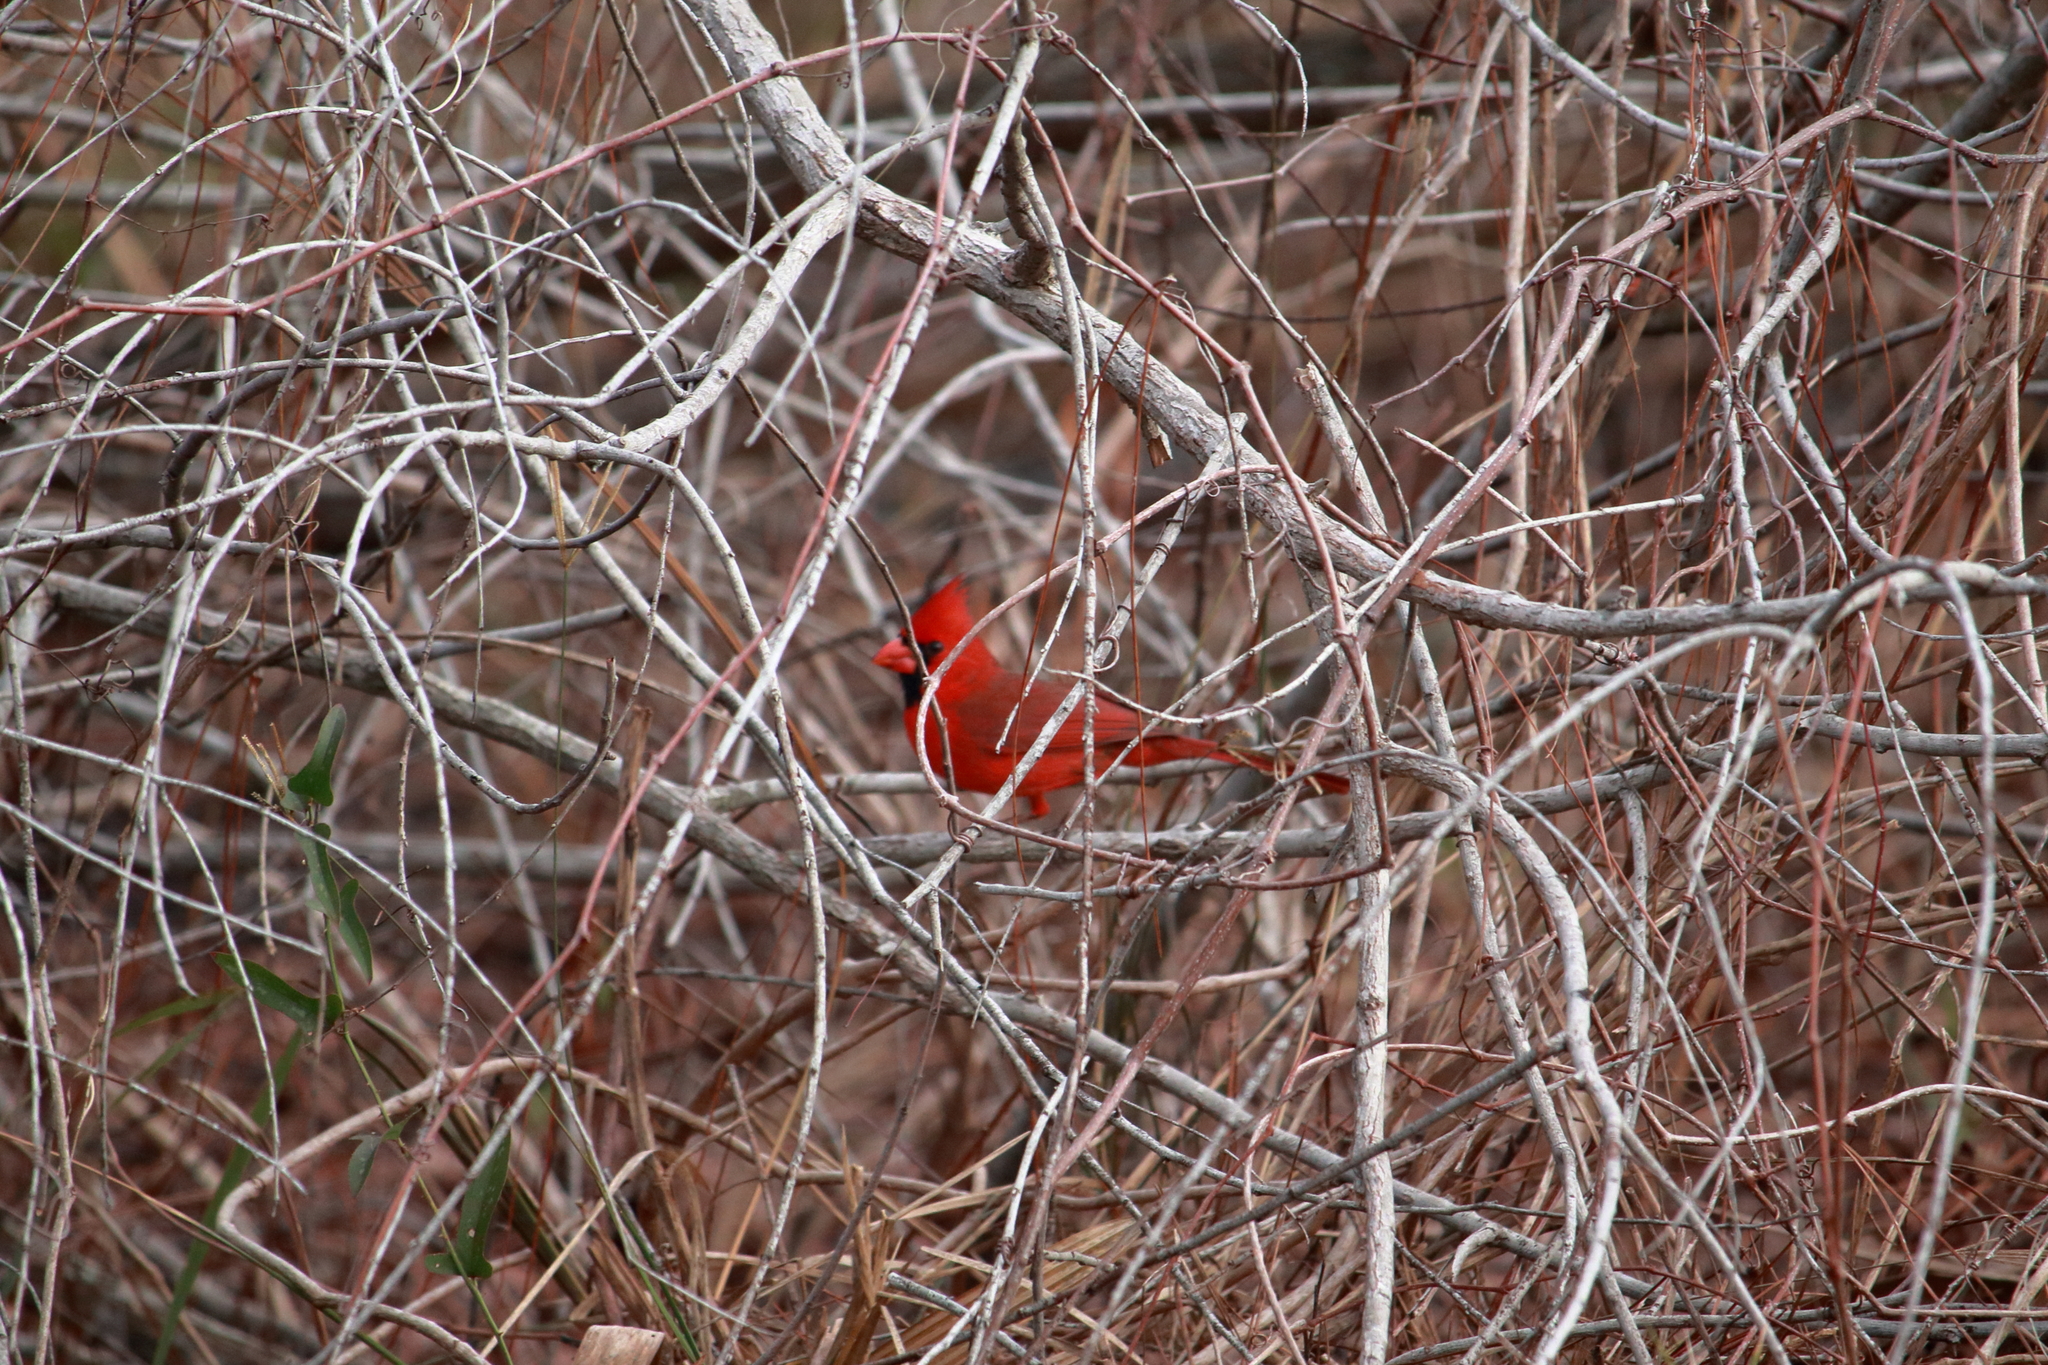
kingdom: Animalia
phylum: Chordata
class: Aves
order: Passeriformes
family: Cardinalidae
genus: Cardinalis
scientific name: Cardinalis cardinalis
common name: Northern cardinal
